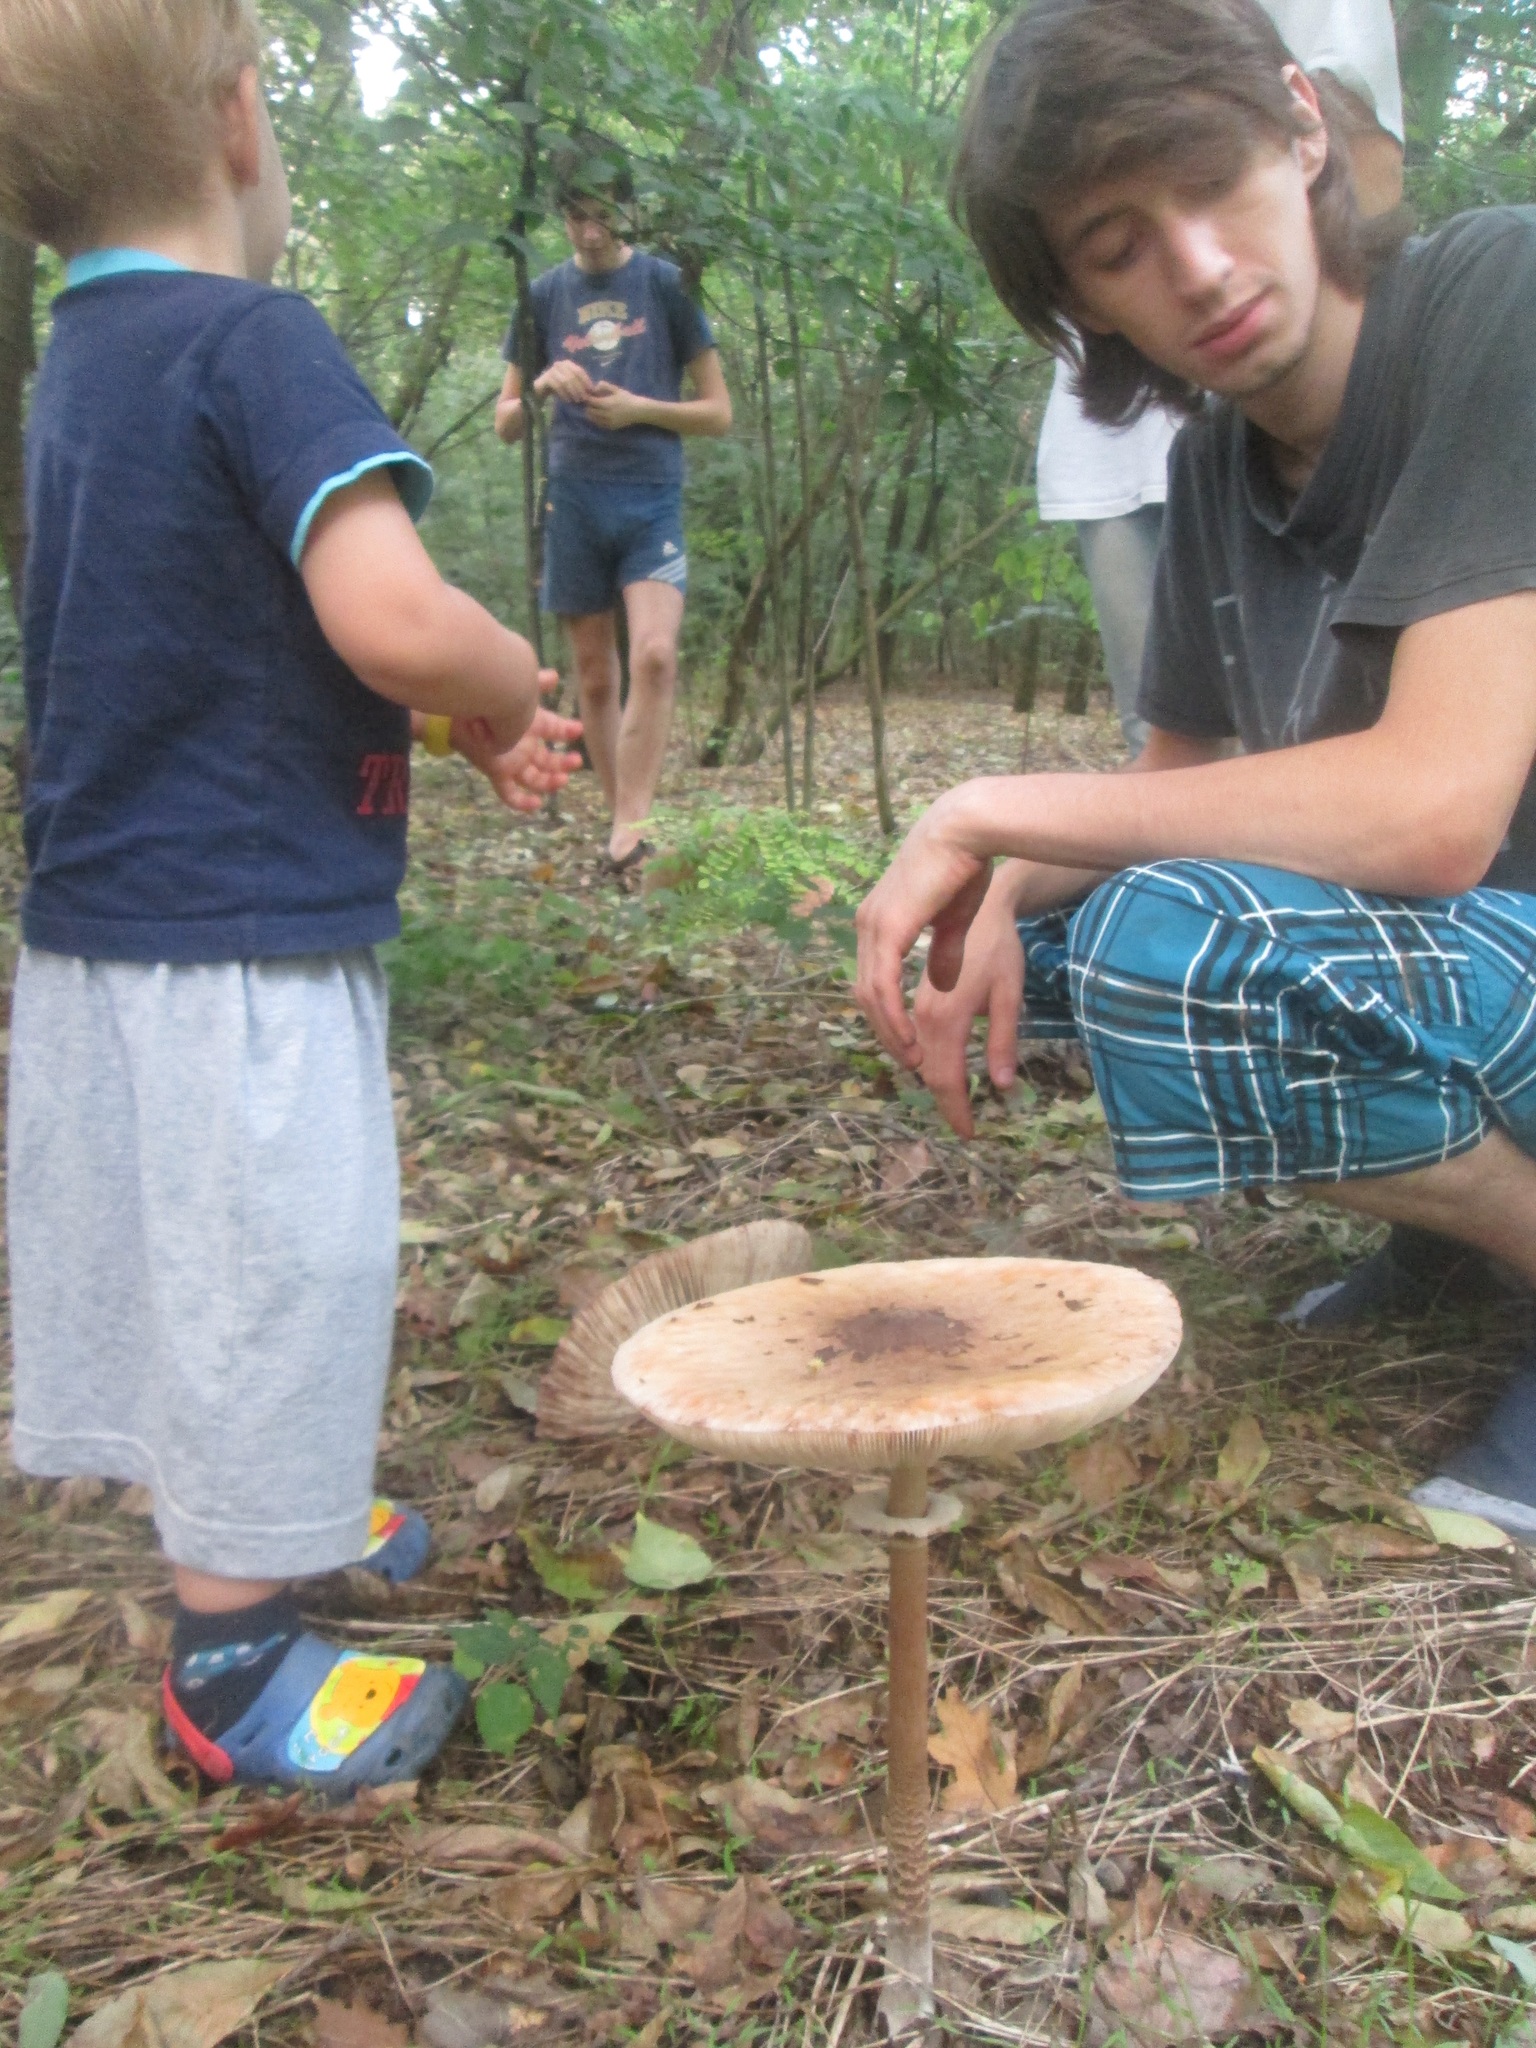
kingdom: Fungi
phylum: Basidiomycota
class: Agaricomycetes
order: Agaricales
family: Agaricaceae
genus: Macrolepiota
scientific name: Macrolepiota procera
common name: Parasol
